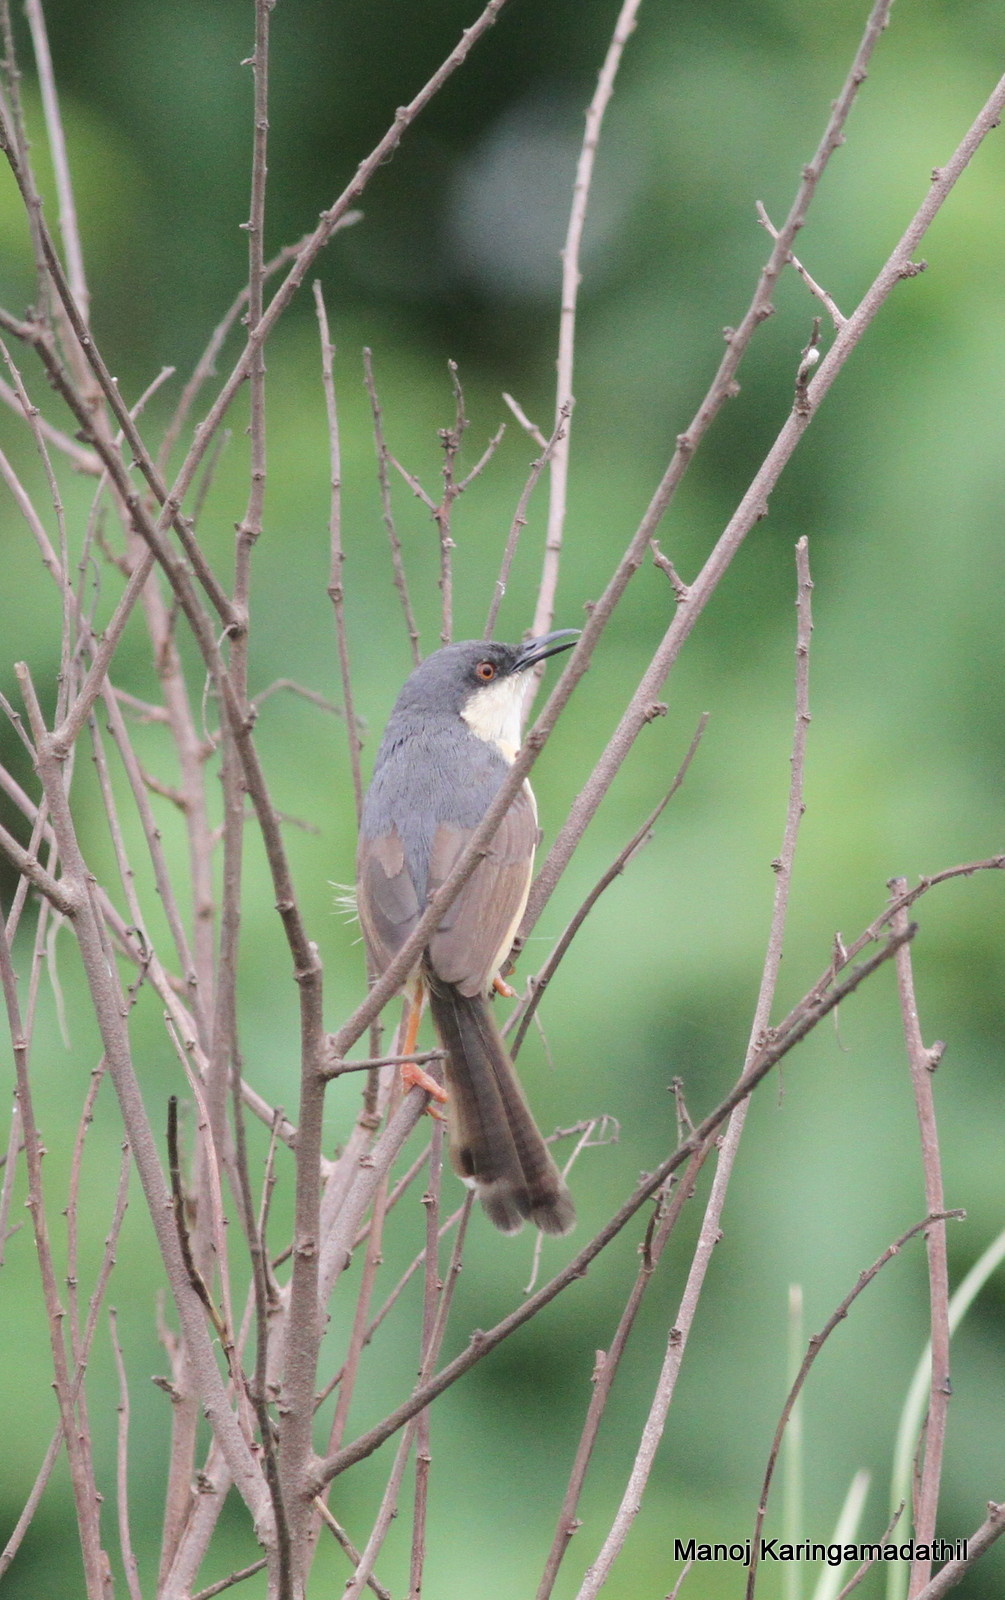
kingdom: Animalia
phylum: Chordata
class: Aves
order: Passeriformes
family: Cisticolidae
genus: Prinia
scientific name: Prinia socialis
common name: Ashy prinia
